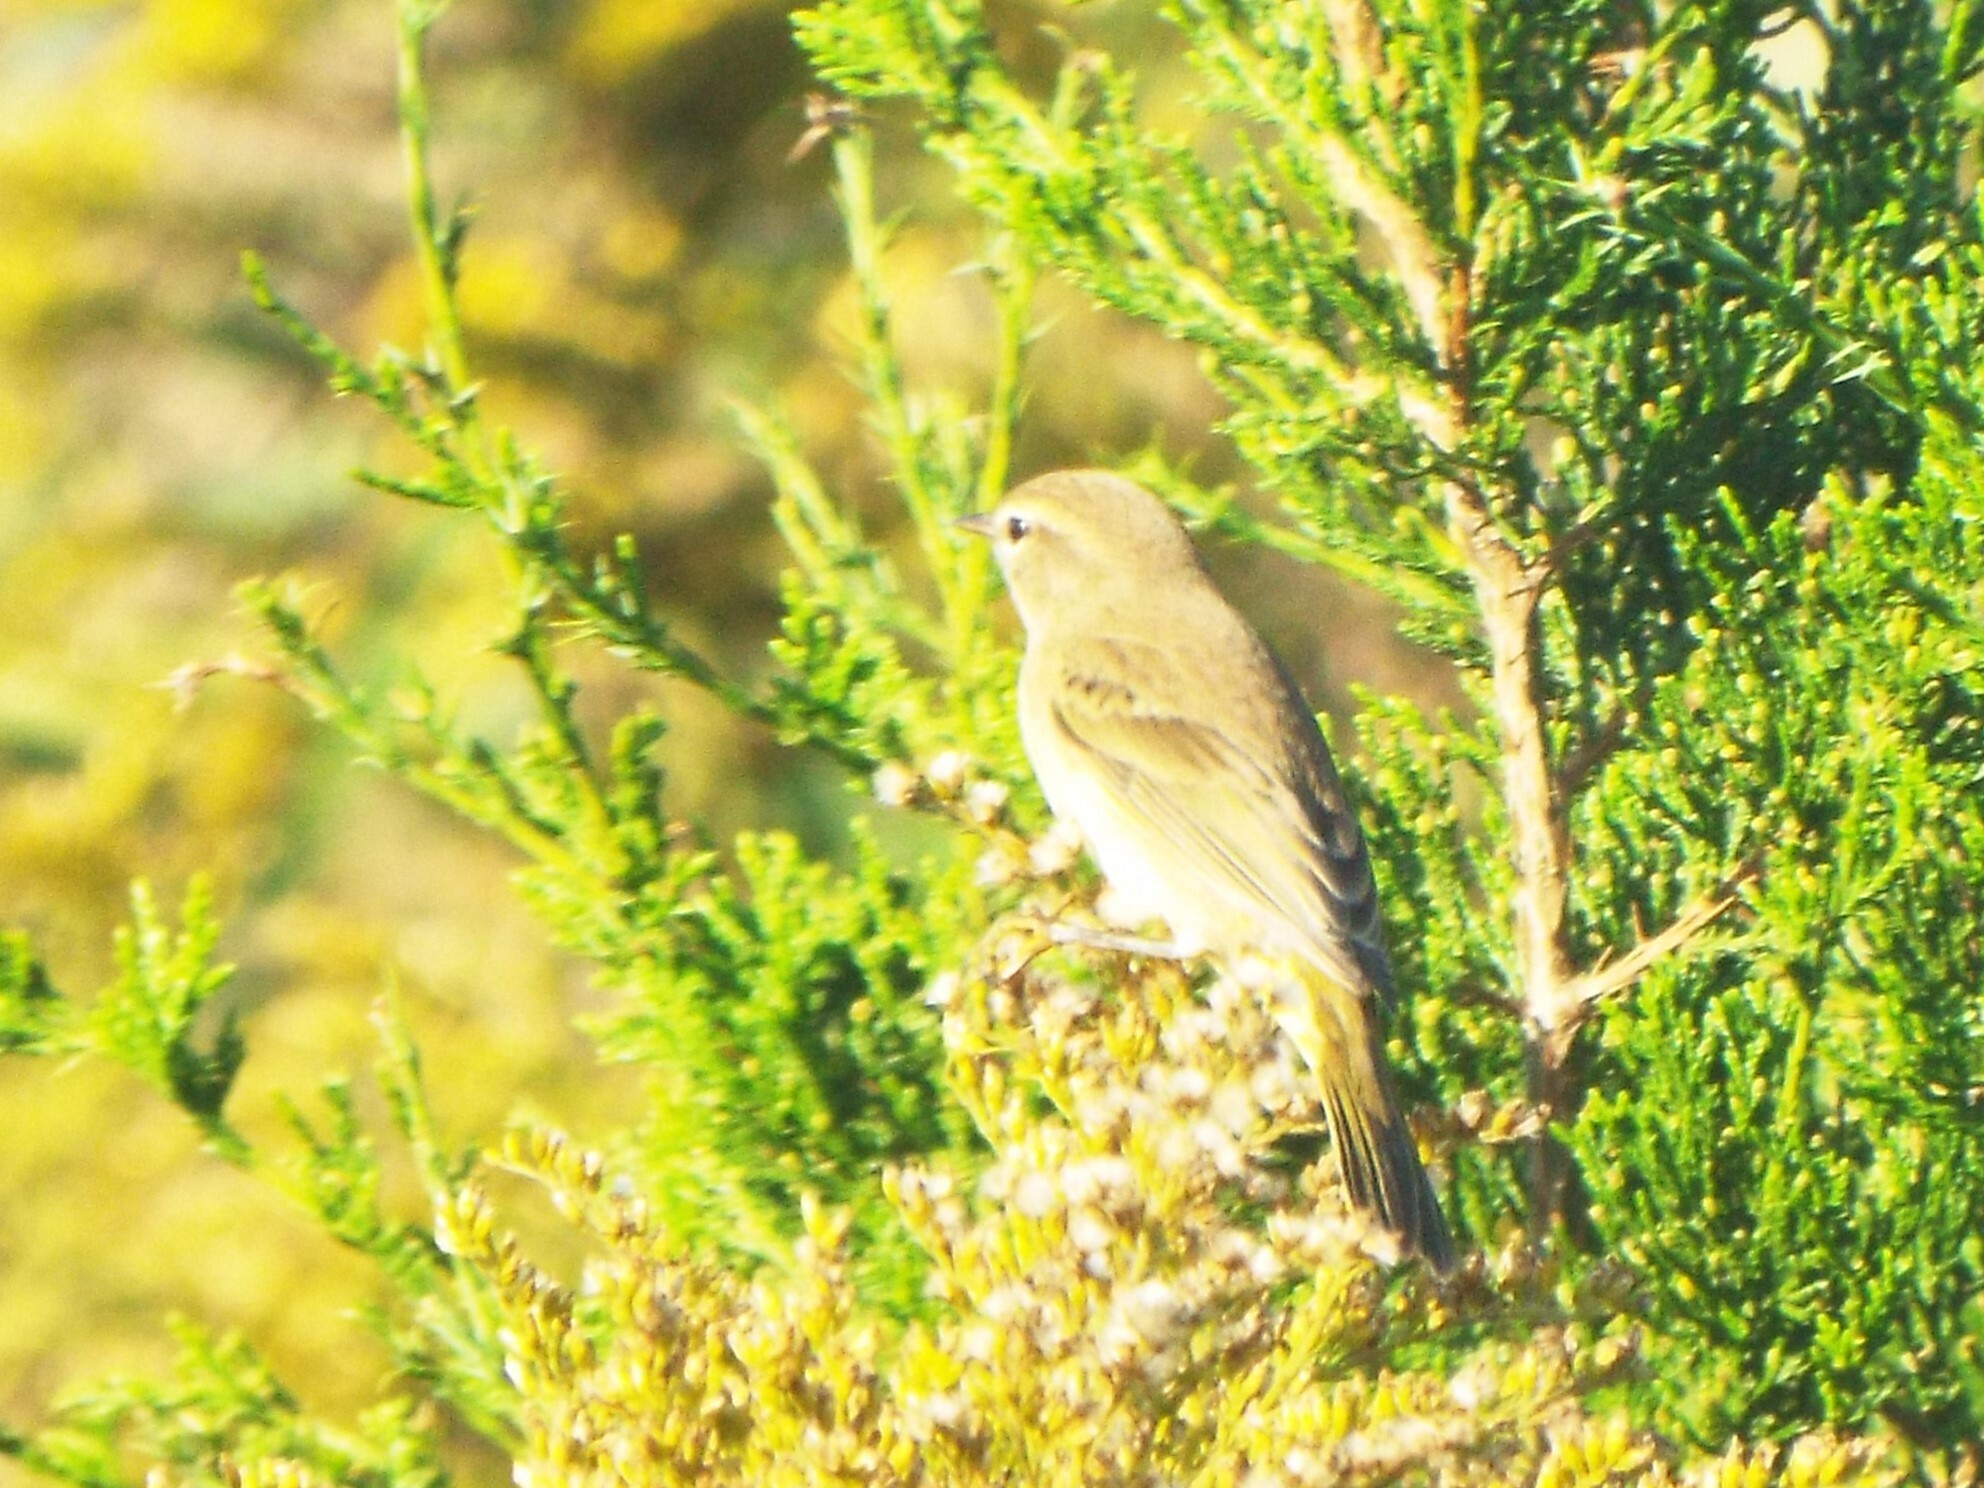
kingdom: Animalia
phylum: Chordata
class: Aves
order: Passeriformes
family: Parulidae
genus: Setophaga
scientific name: Setophaga palmarum
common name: Palm warbler
